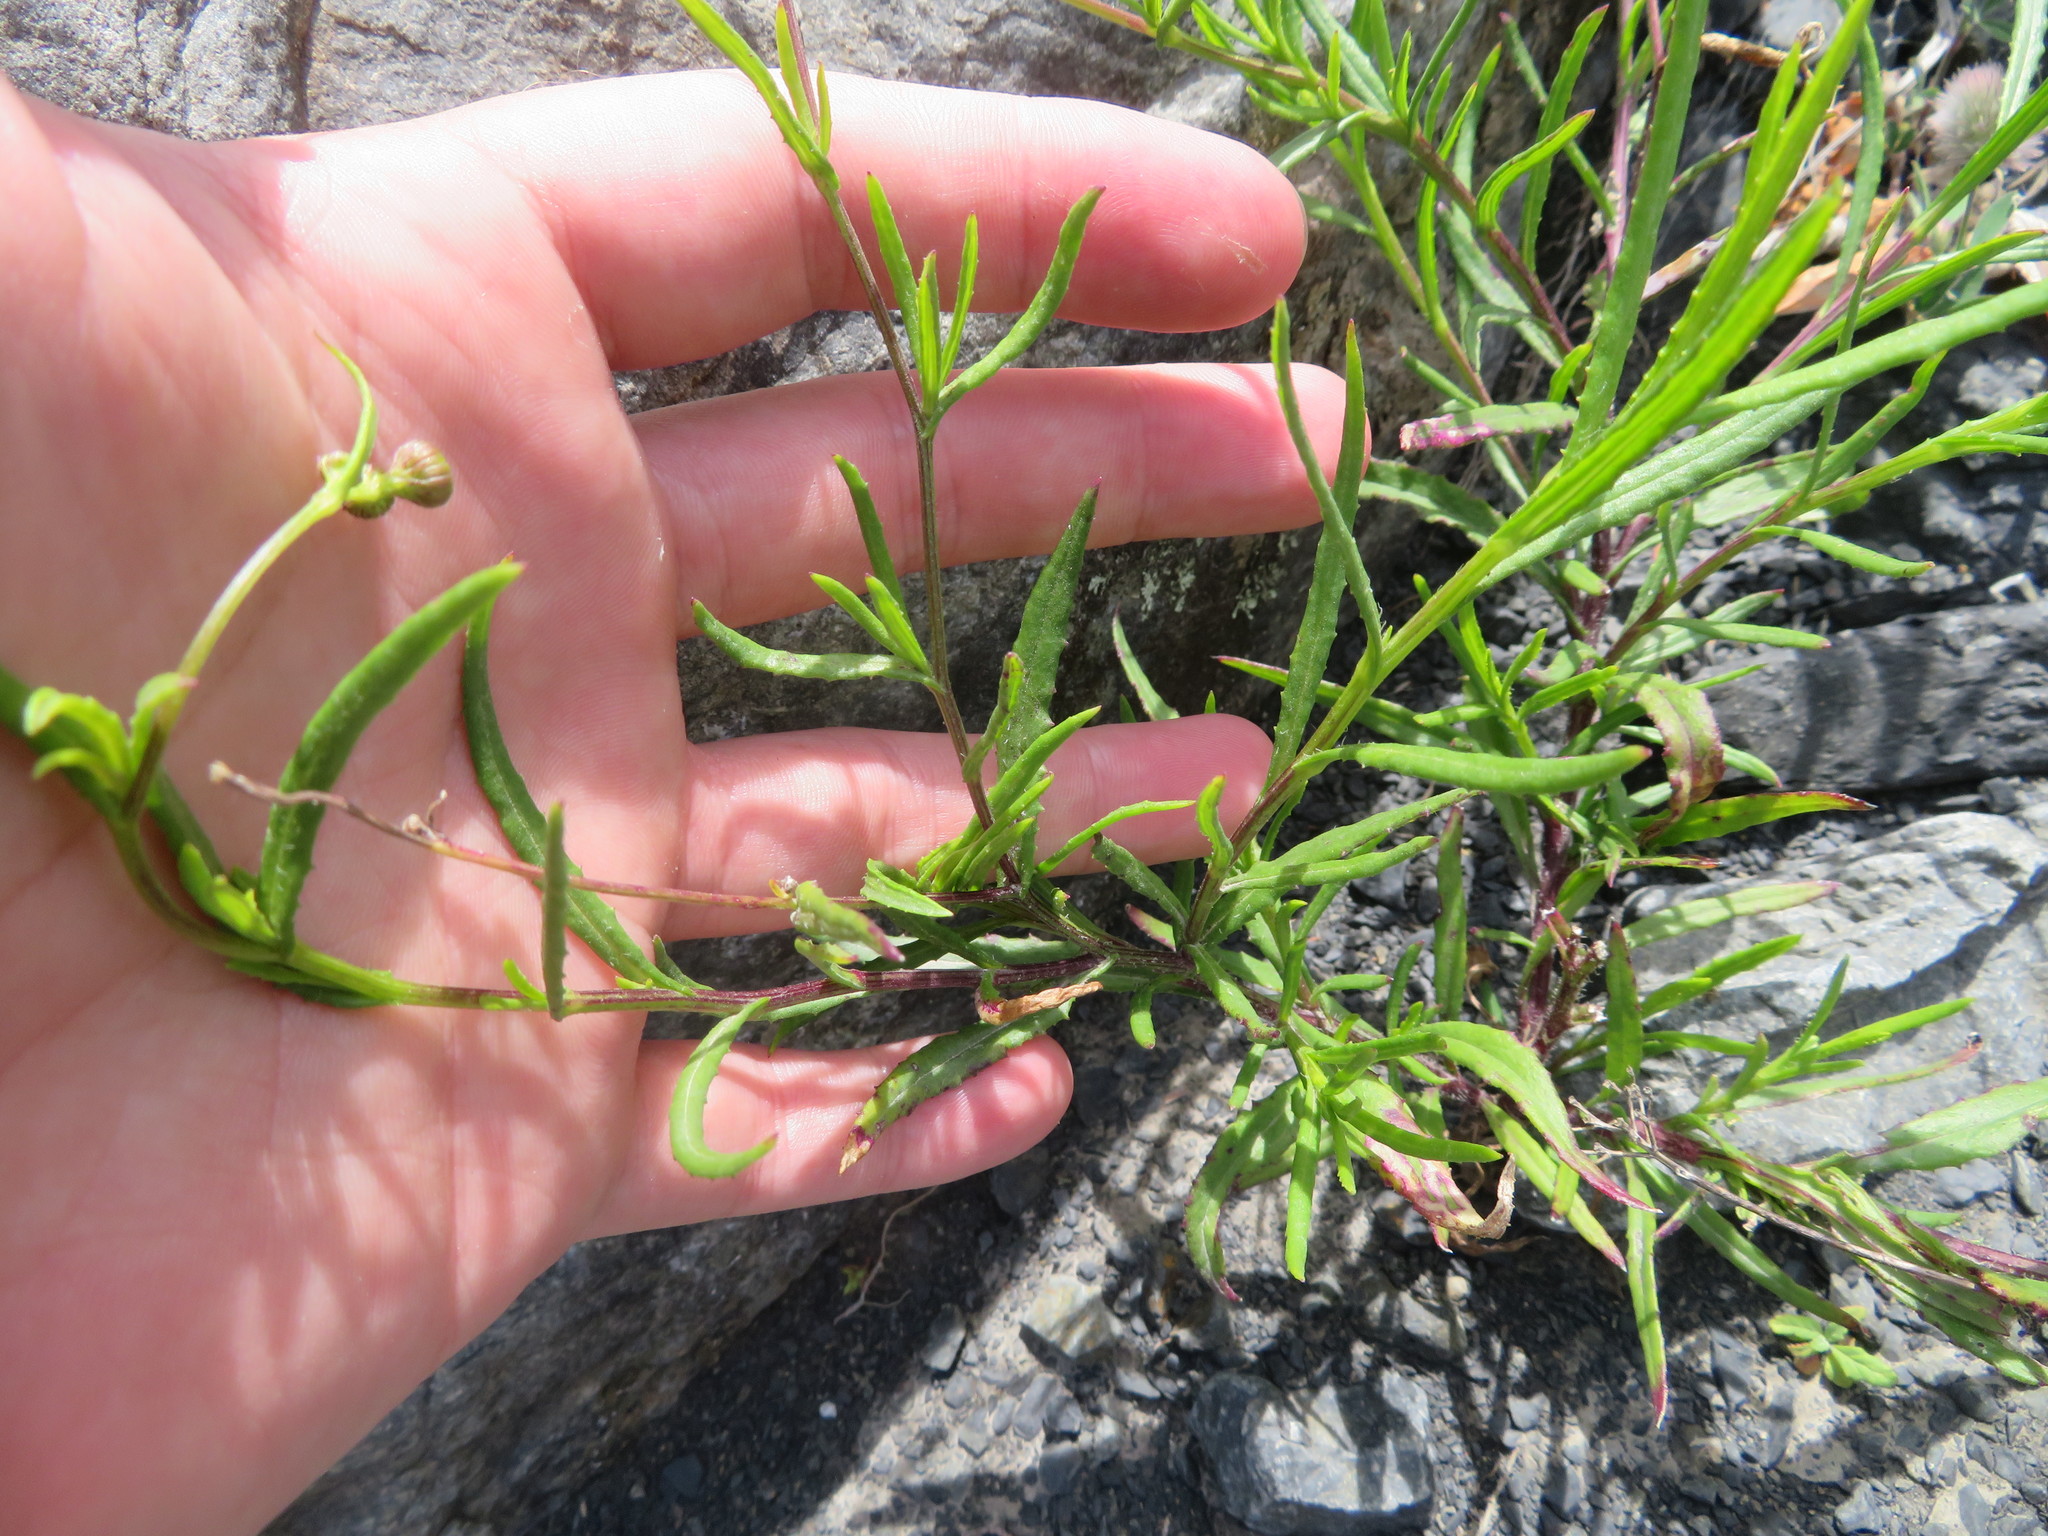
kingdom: Plantae
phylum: Tracheophyta
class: Magnoliopsida
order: Asterales
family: Asteraceae
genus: Senecio
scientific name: Senecio skirrhodon
